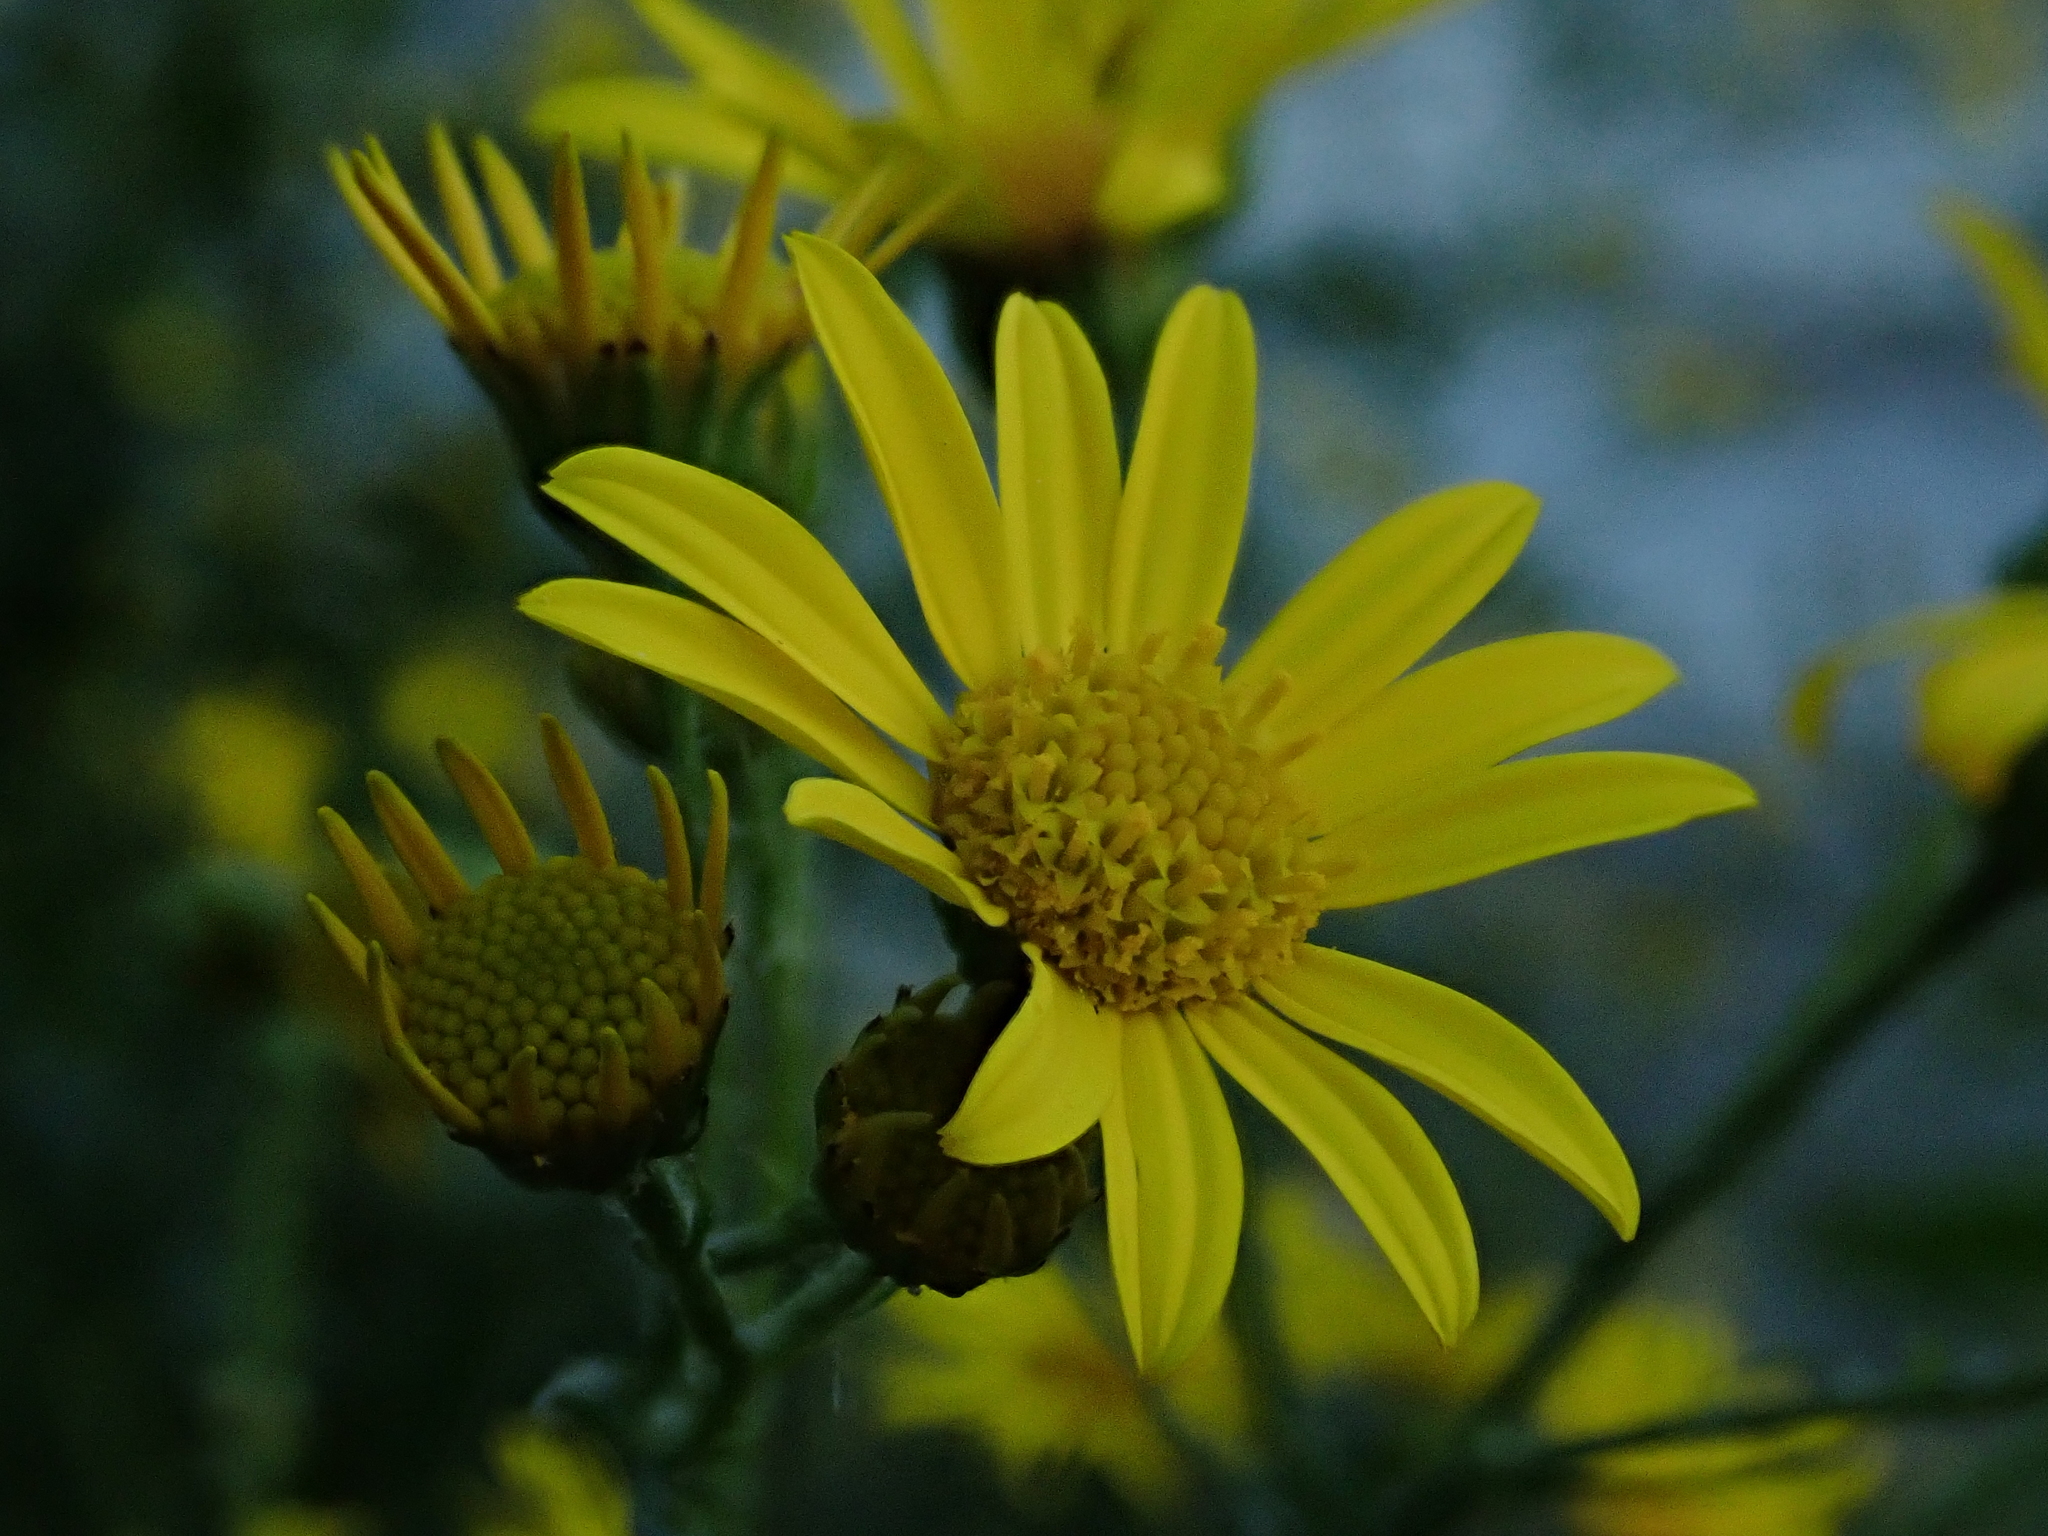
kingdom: Plantae
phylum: Tracheophyta
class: Magnoliopsida
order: Asterales
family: Asteraceae
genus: Senecio
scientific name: Senecio squalidus
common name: Oxford ragwort
